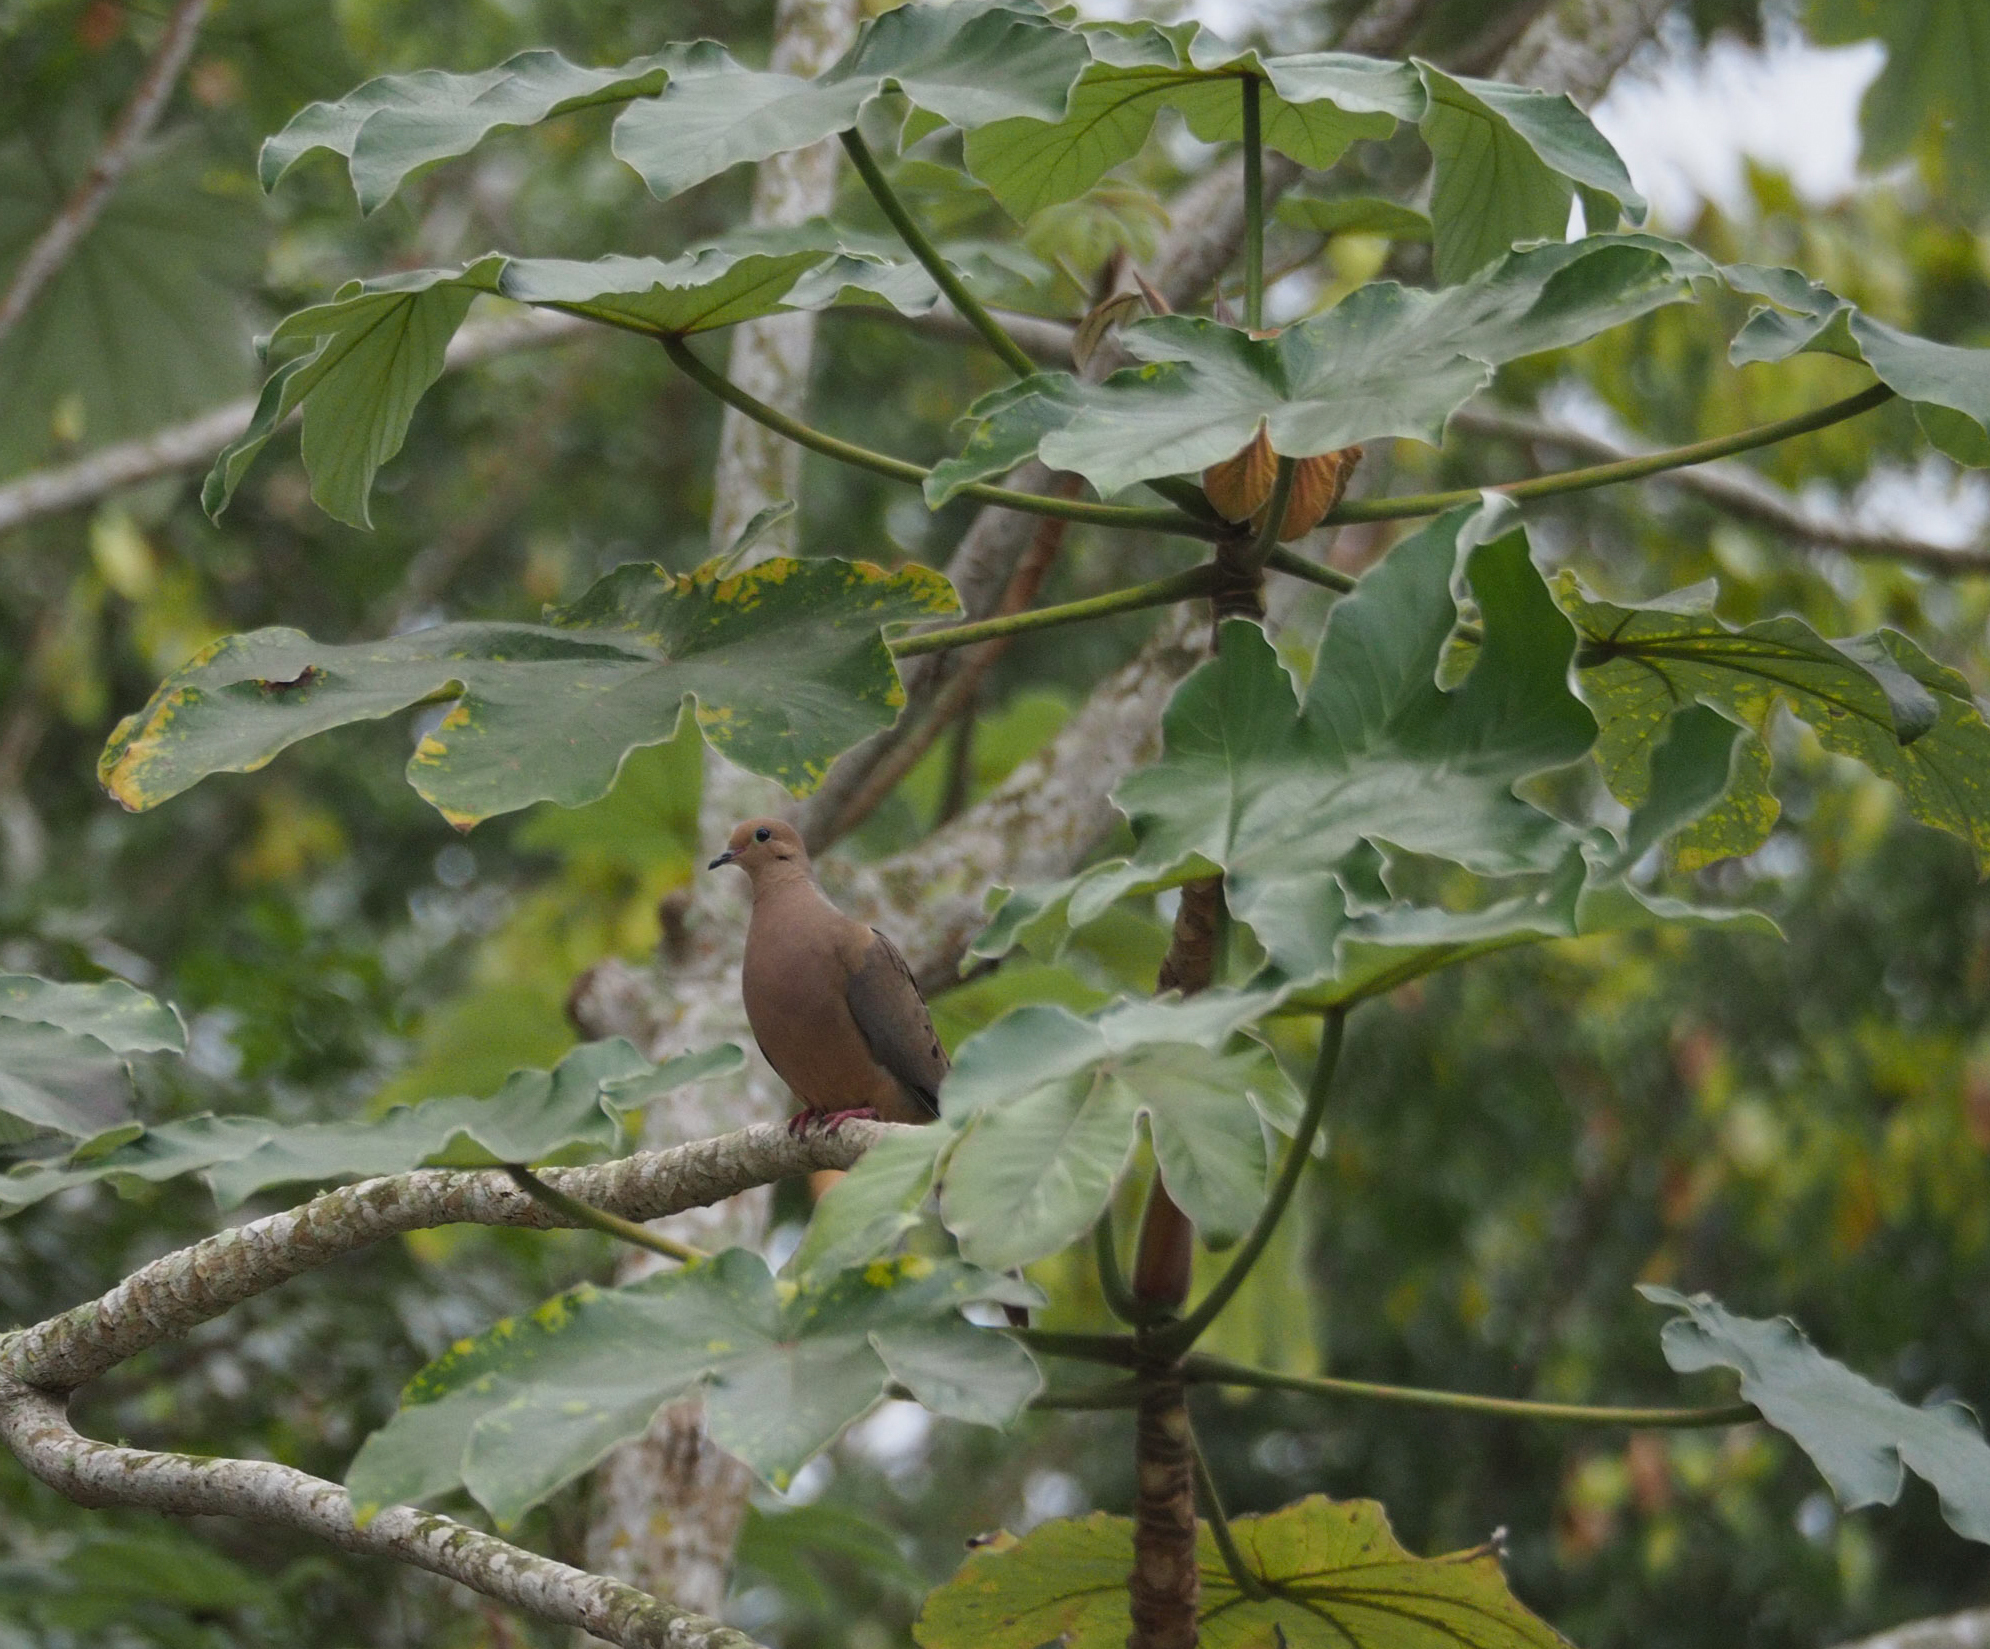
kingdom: Animalia
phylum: Chordata
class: Aves
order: Columbiformes
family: Columbidae
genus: Zenaida
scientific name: Zenaida macroura
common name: Mourning dove
